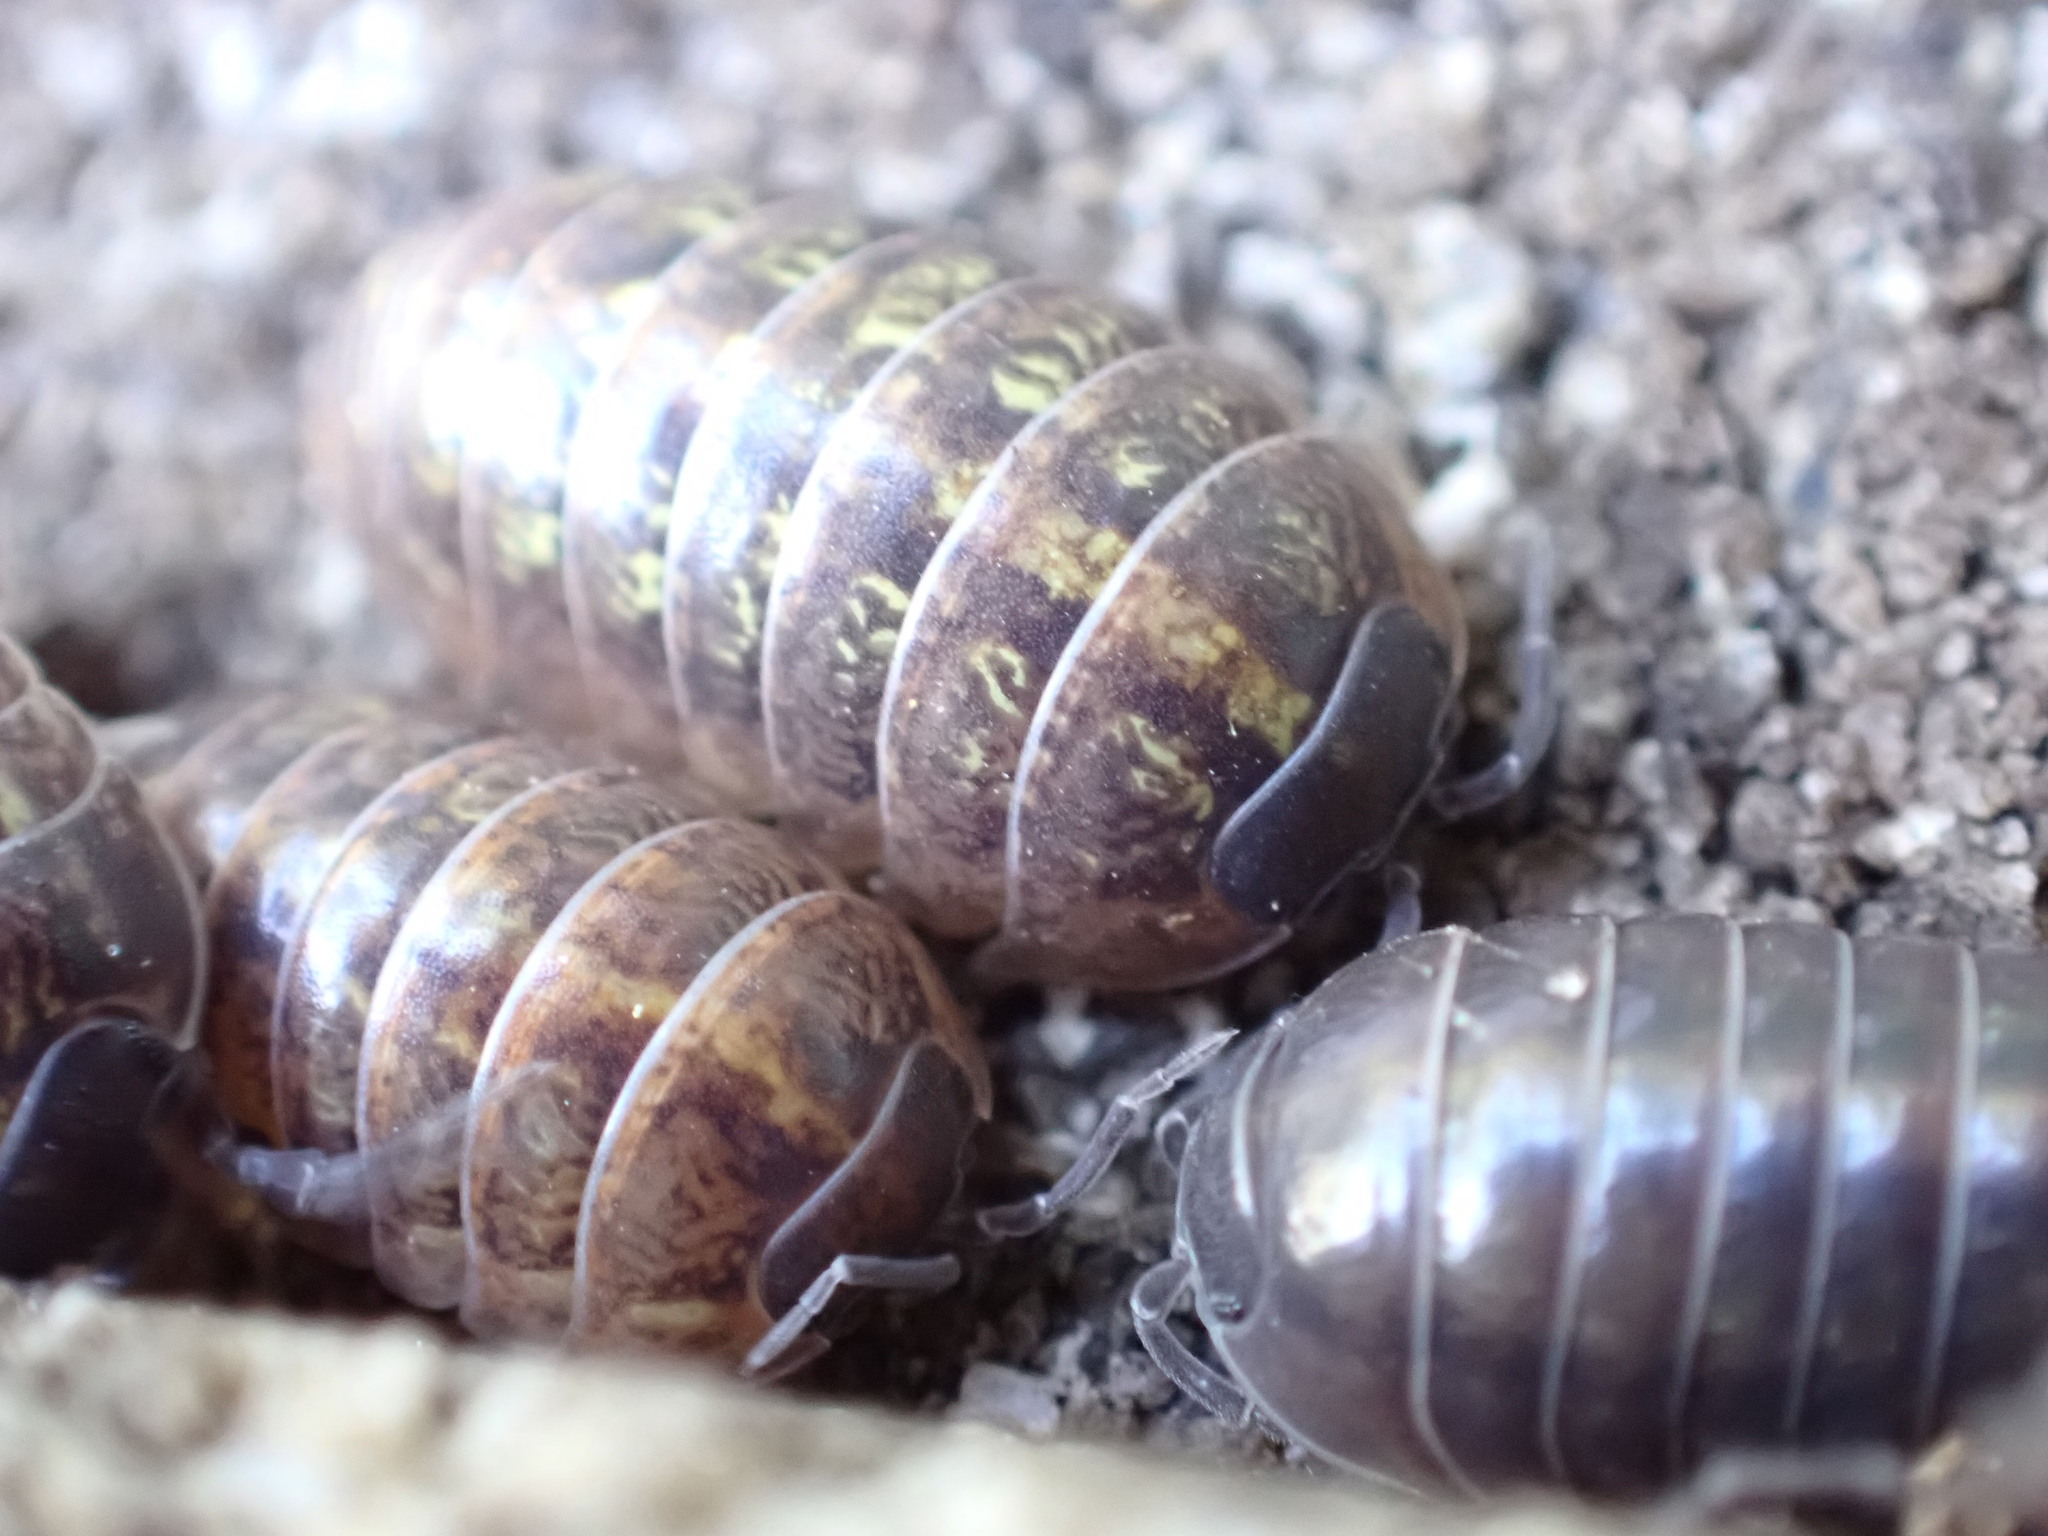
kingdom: Animalia
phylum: Arthropoda
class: Malacostraca
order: Isopoda
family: Armadillidiidae
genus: Armadillidium
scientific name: Armadillidium vulgare
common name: Common pill woodlouse
